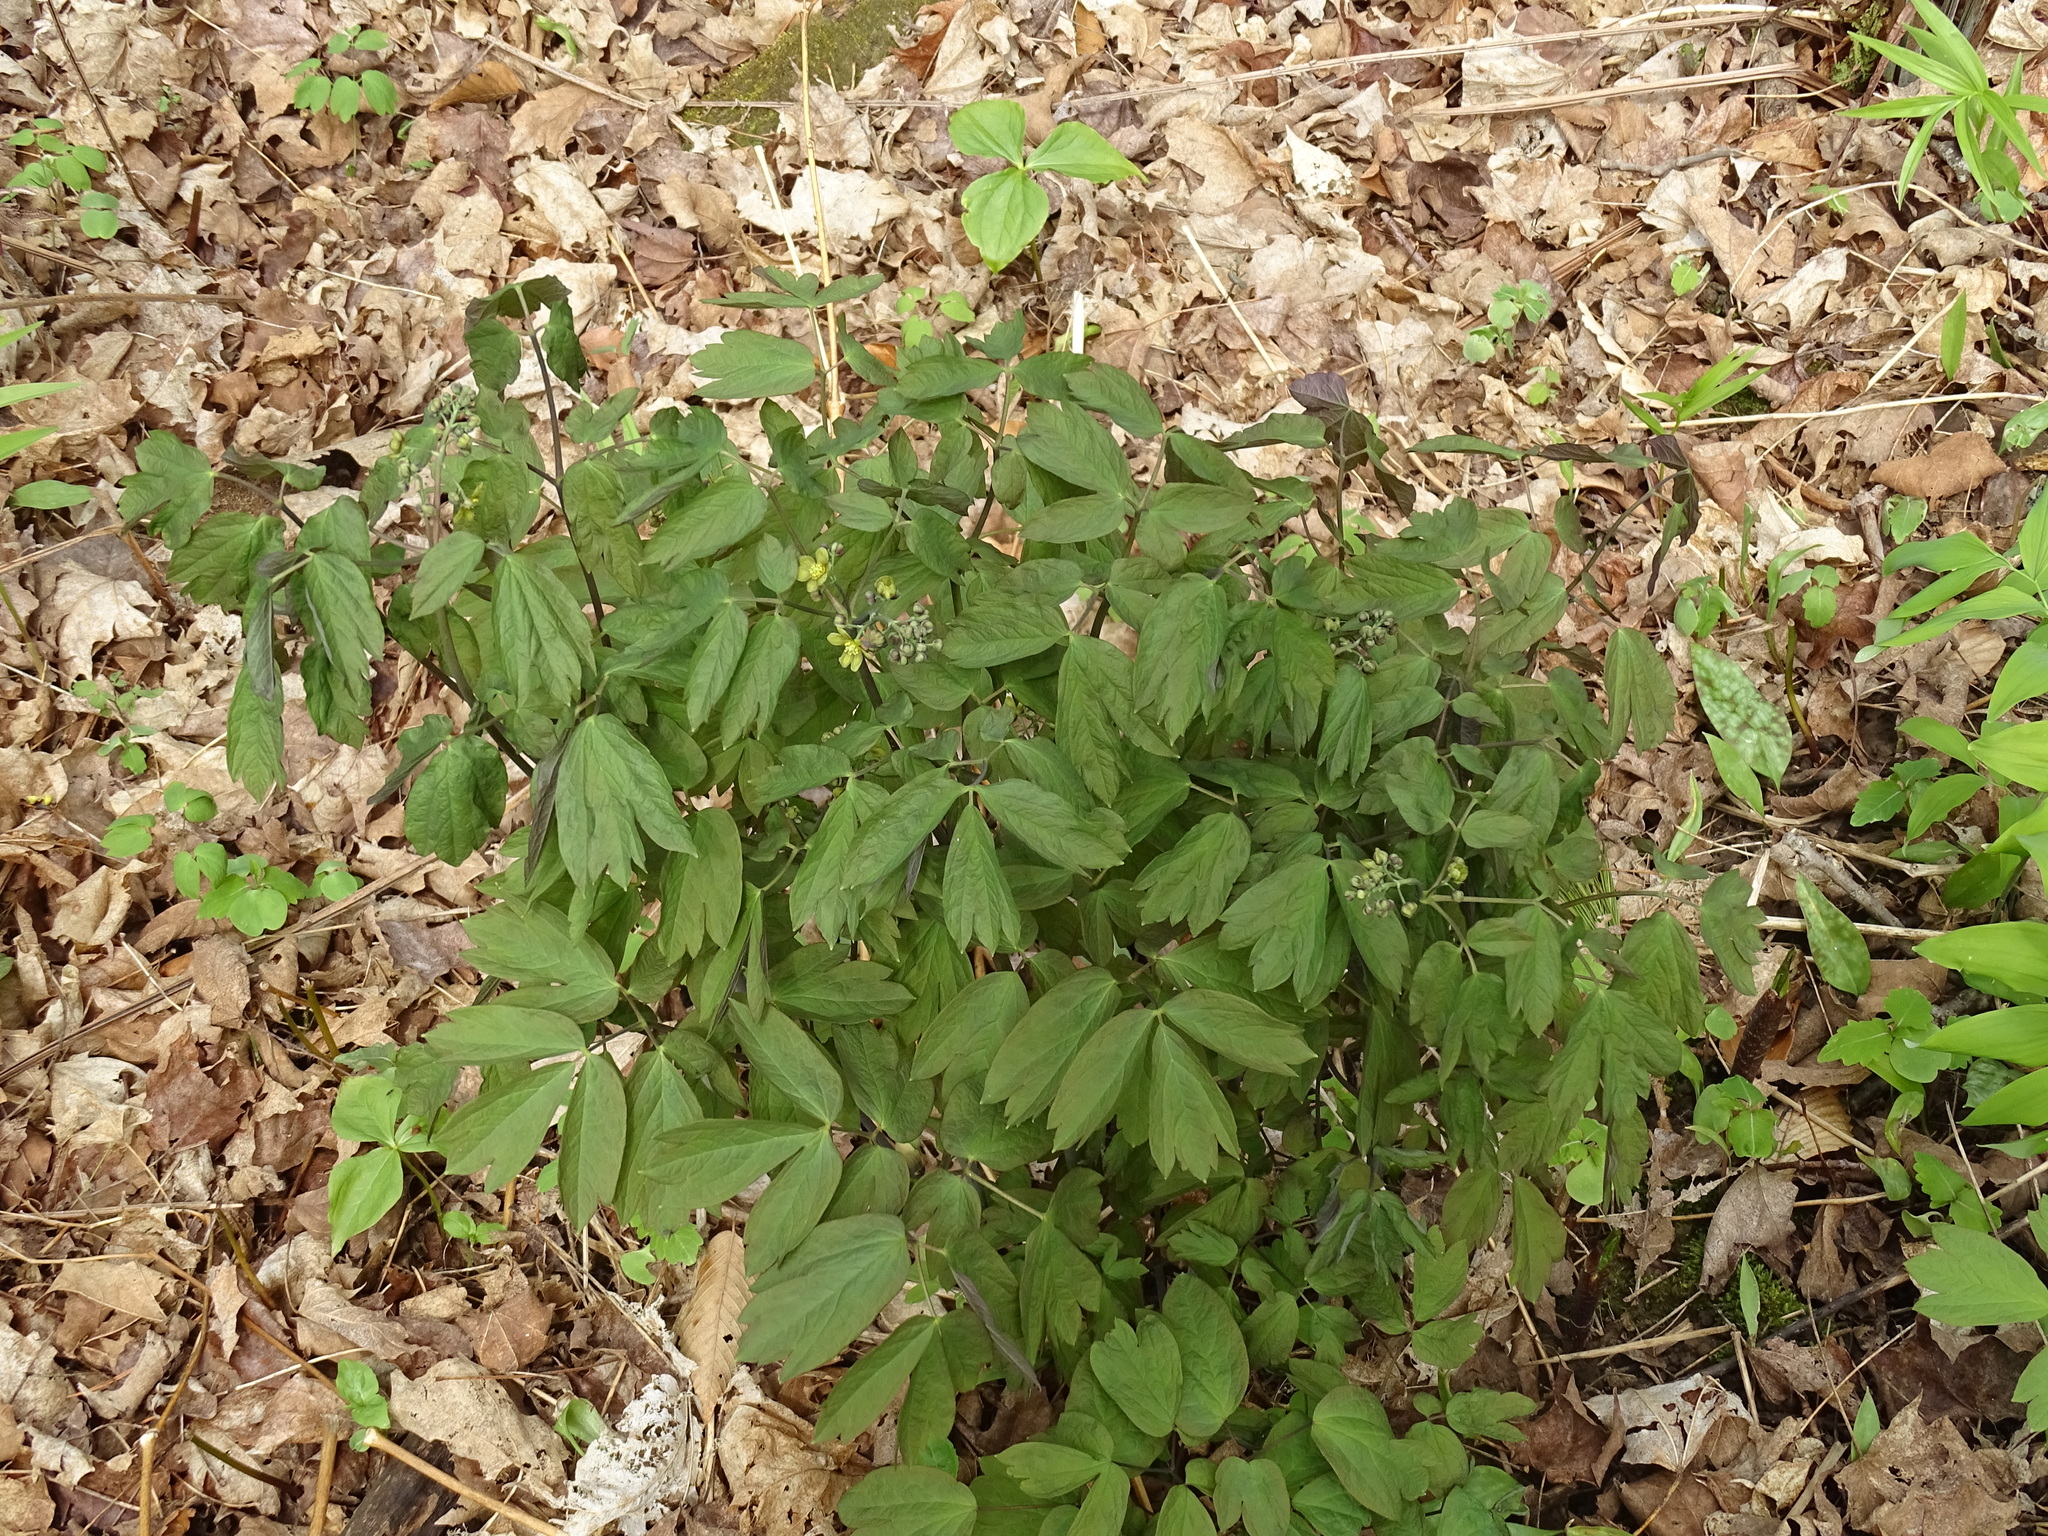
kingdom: Plantae
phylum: Tracheophyta
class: Magnoliopsida
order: Ranunculales
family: Berberidaceae
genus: Caulophyllum
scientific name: Caulophyllum thalictroides
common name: Blue cohosh
